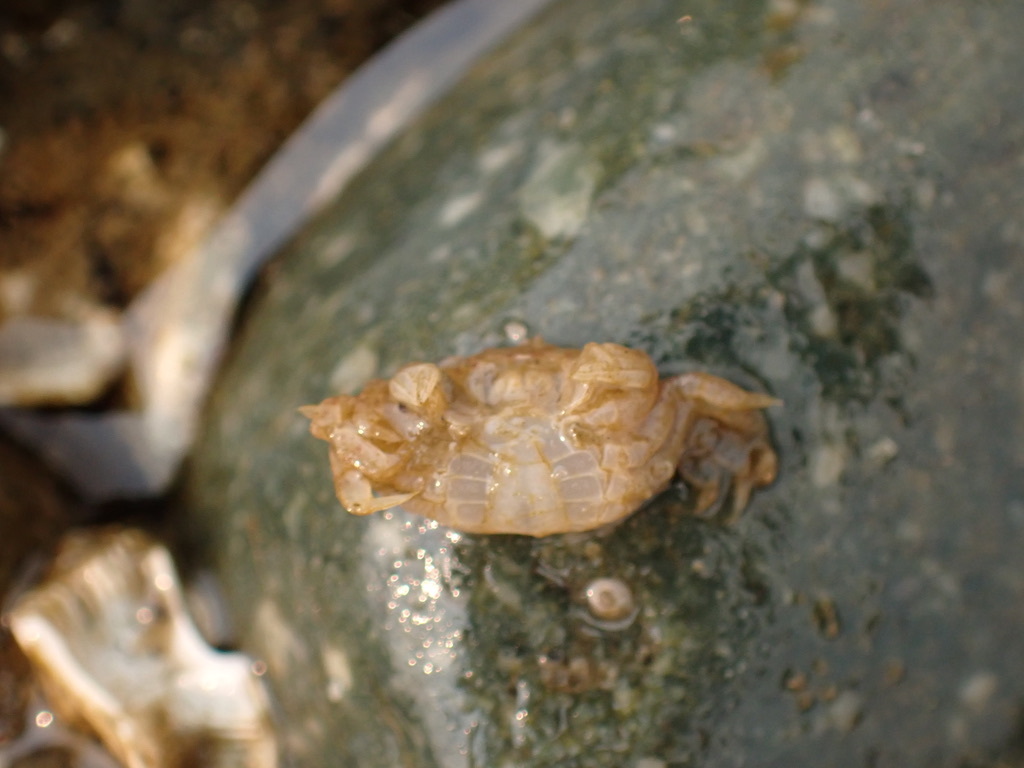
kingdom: Animalia
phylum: Arthropoda
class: Malacostraca
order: Decapoda
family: Varunidae
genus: Hemigrapsus
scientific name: Hemigrapsus oregonensis
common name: Yellow shore crab
